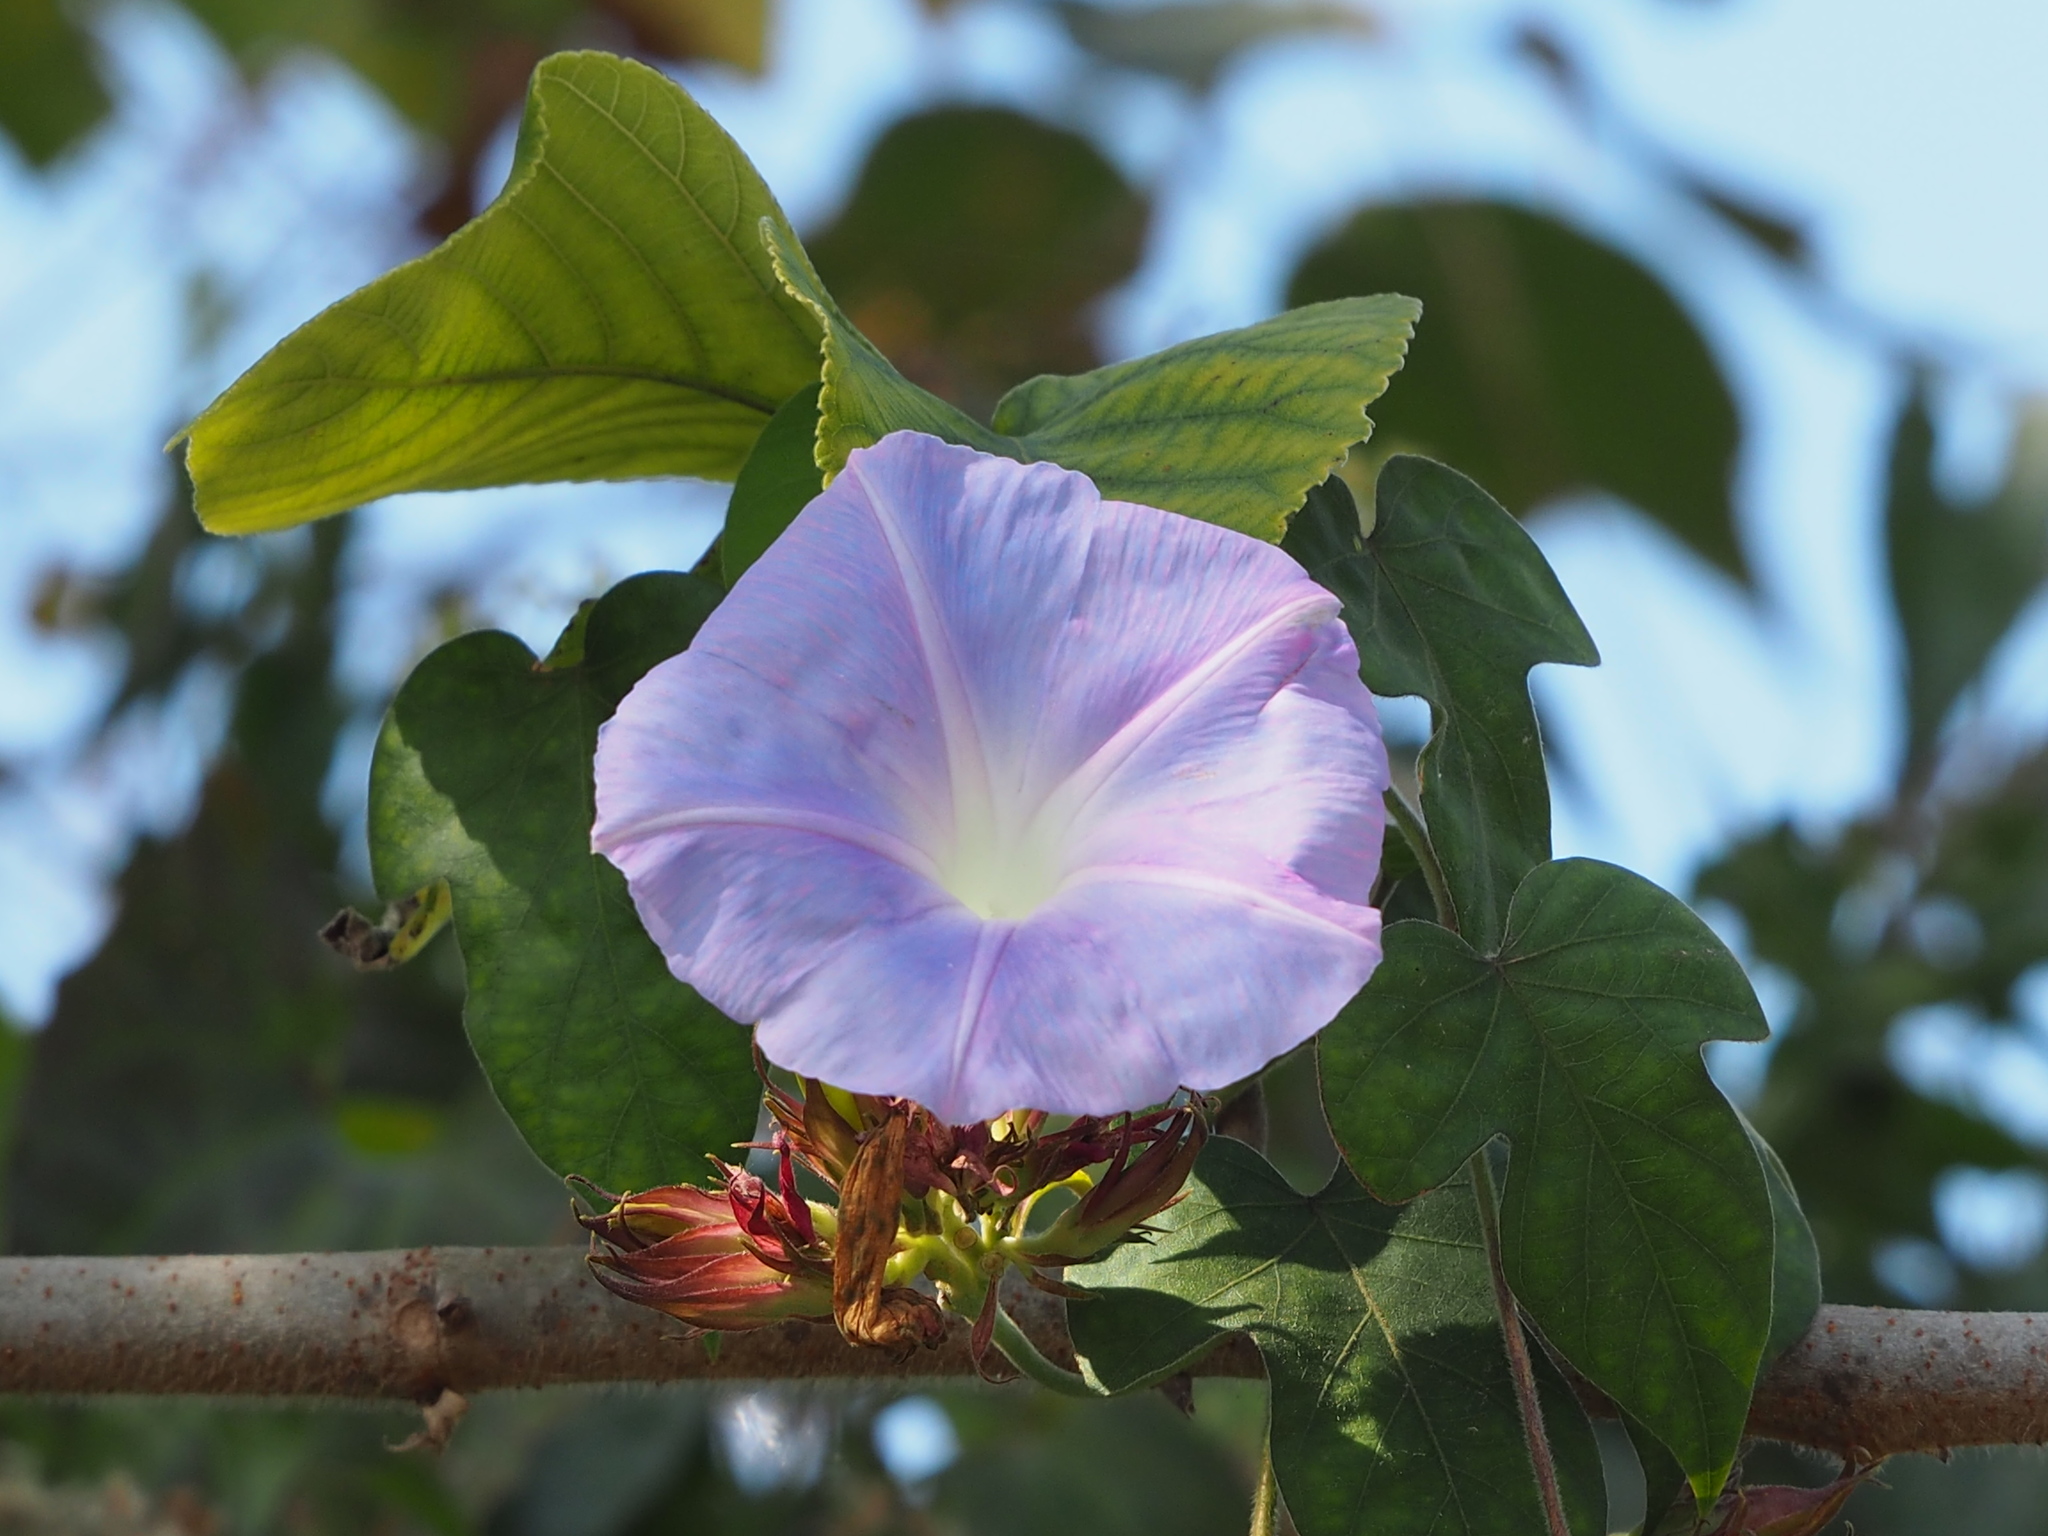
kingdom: Plantae
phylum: Tracheophyta
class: Magnoliopsida
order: Solanales
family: Convolvulaceae
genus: Ipomoea
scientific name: Ipomoea indica
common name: Blue dawnflower
